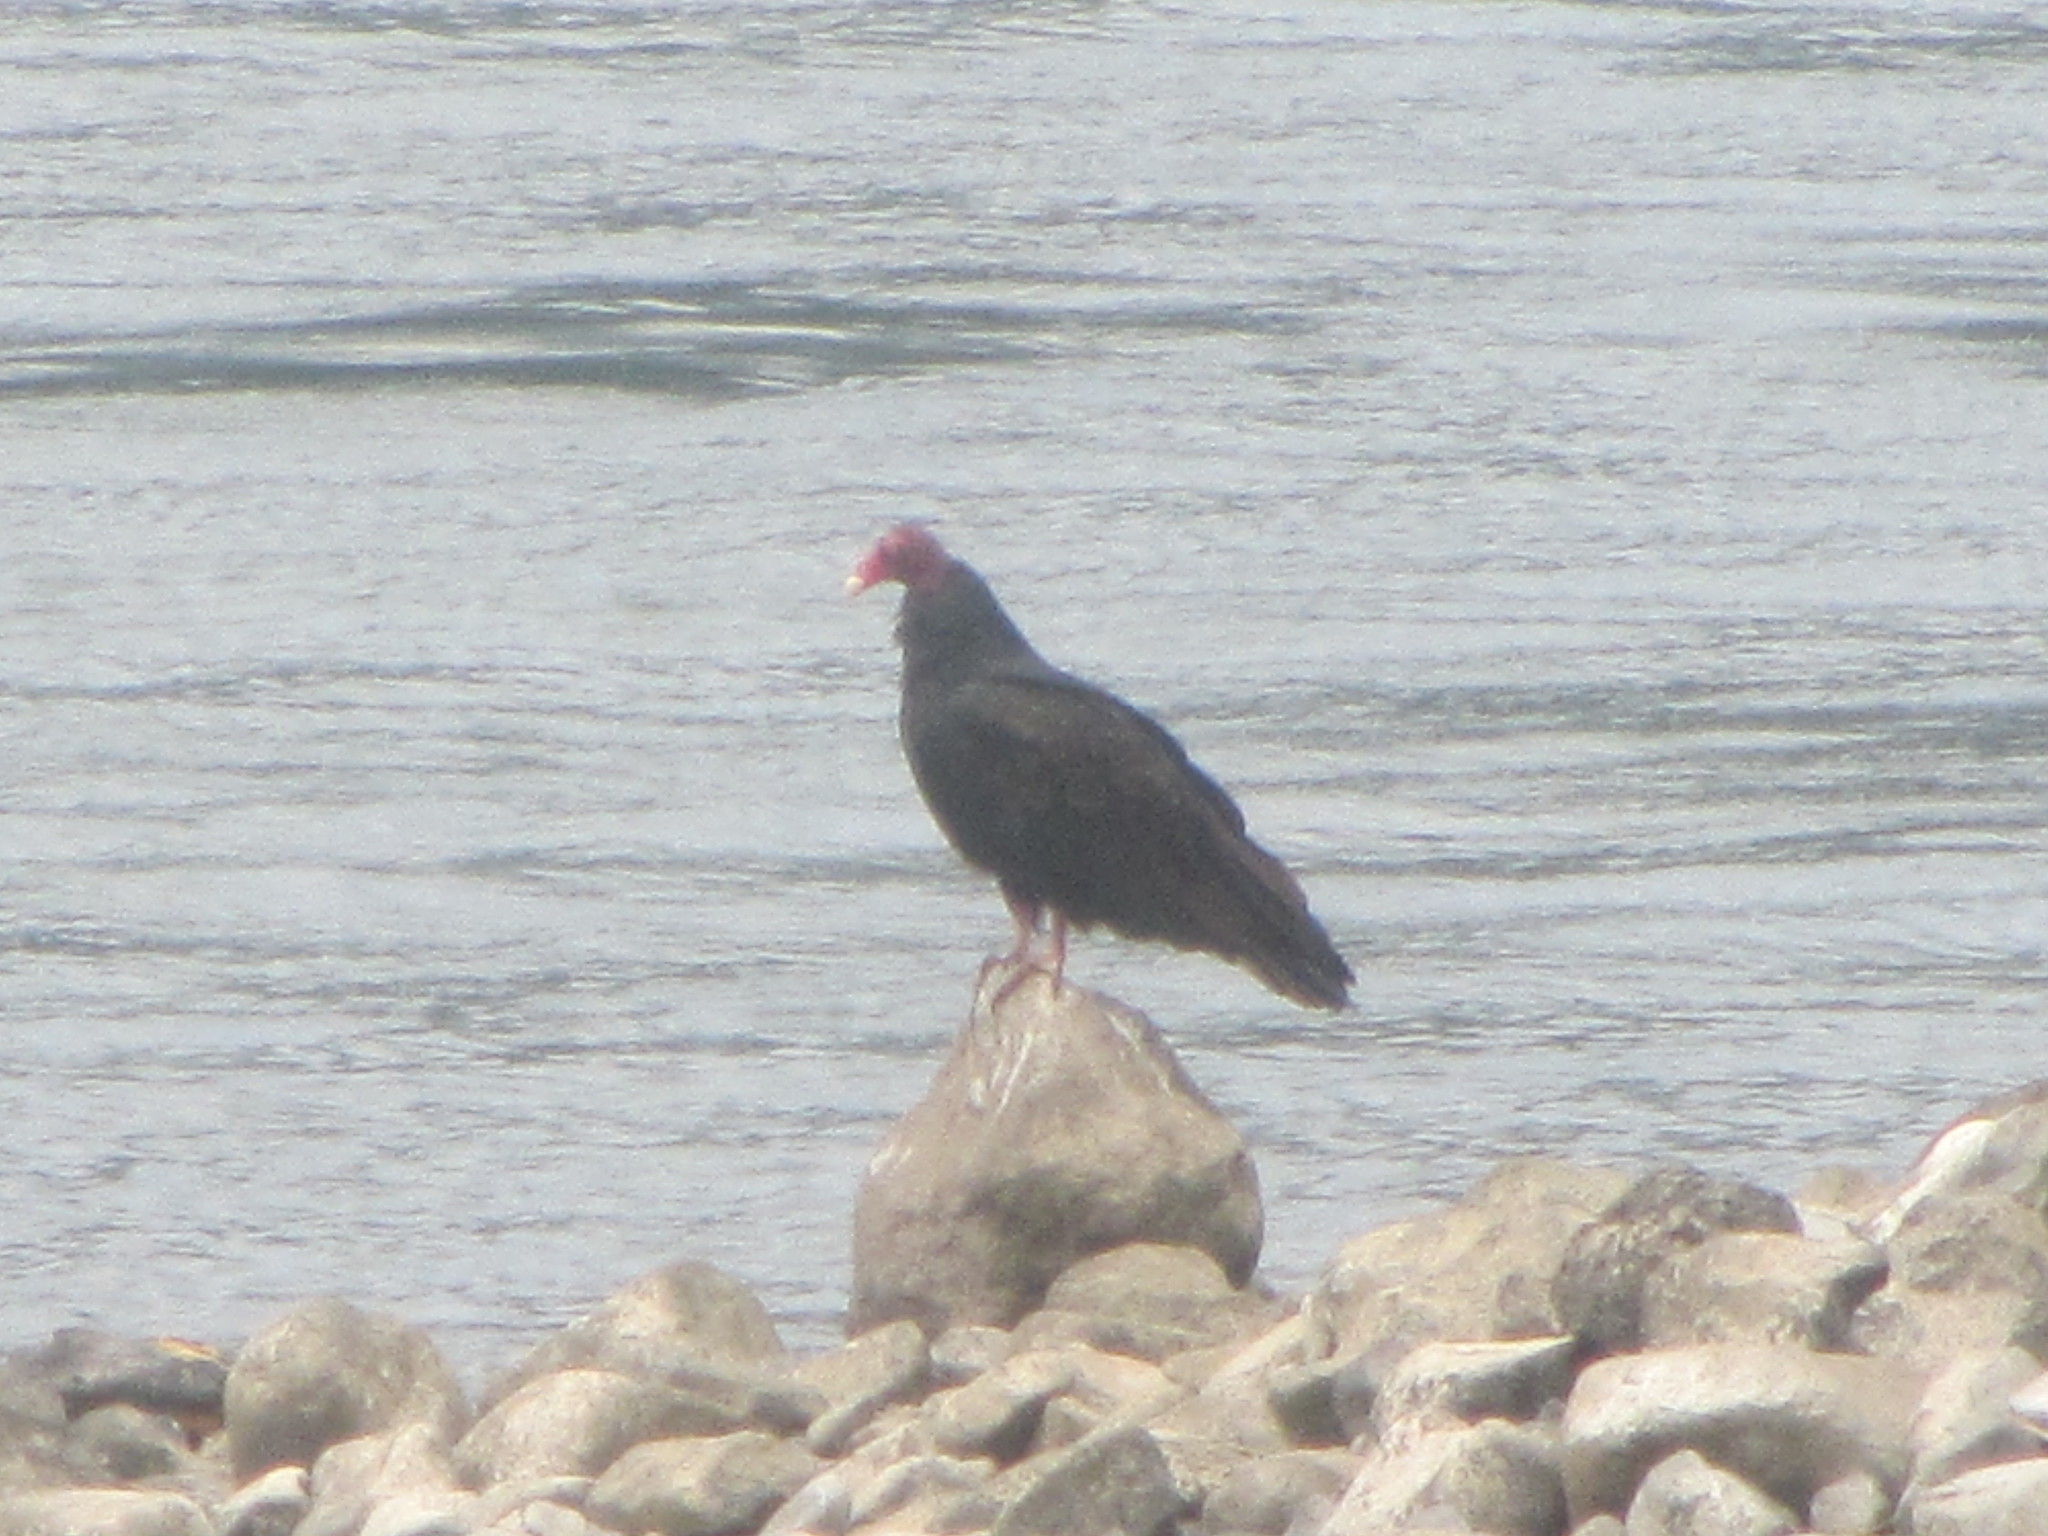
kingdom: Animalia
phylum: Chordata
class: Aves
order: Accipitriformes
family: Cathartidae
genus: Cathartes
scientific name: Cathartes aura
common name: Turkey vulture
